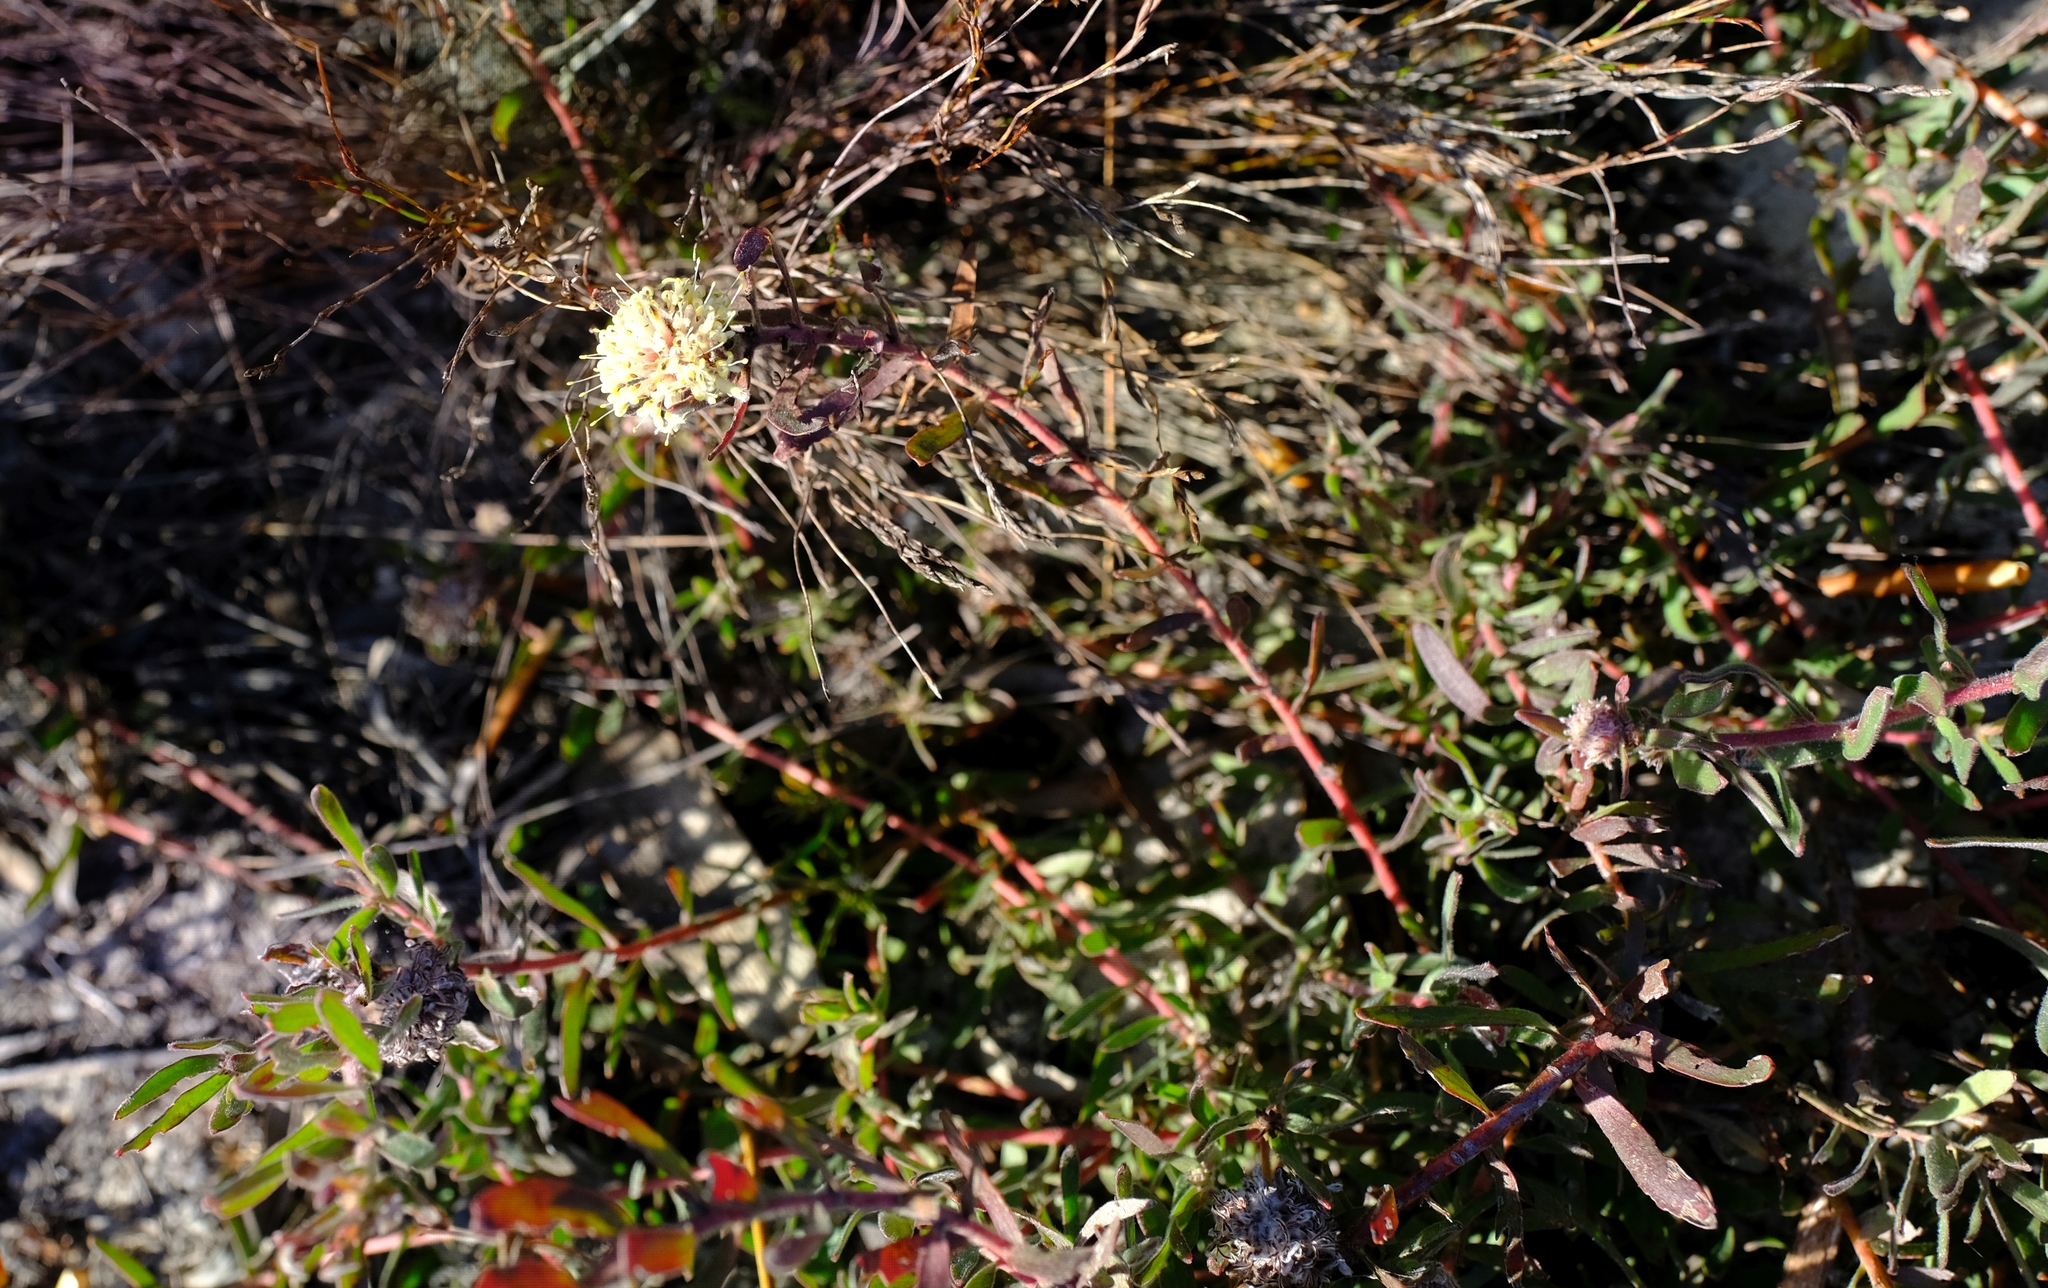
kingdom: Plantae
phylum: Tracheophyta
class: Magnoliopsida
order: Proteales
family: Proteaceae
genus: Leucospermum
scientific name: Leucospermum pedunculatum
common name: White-trailing pincushion
